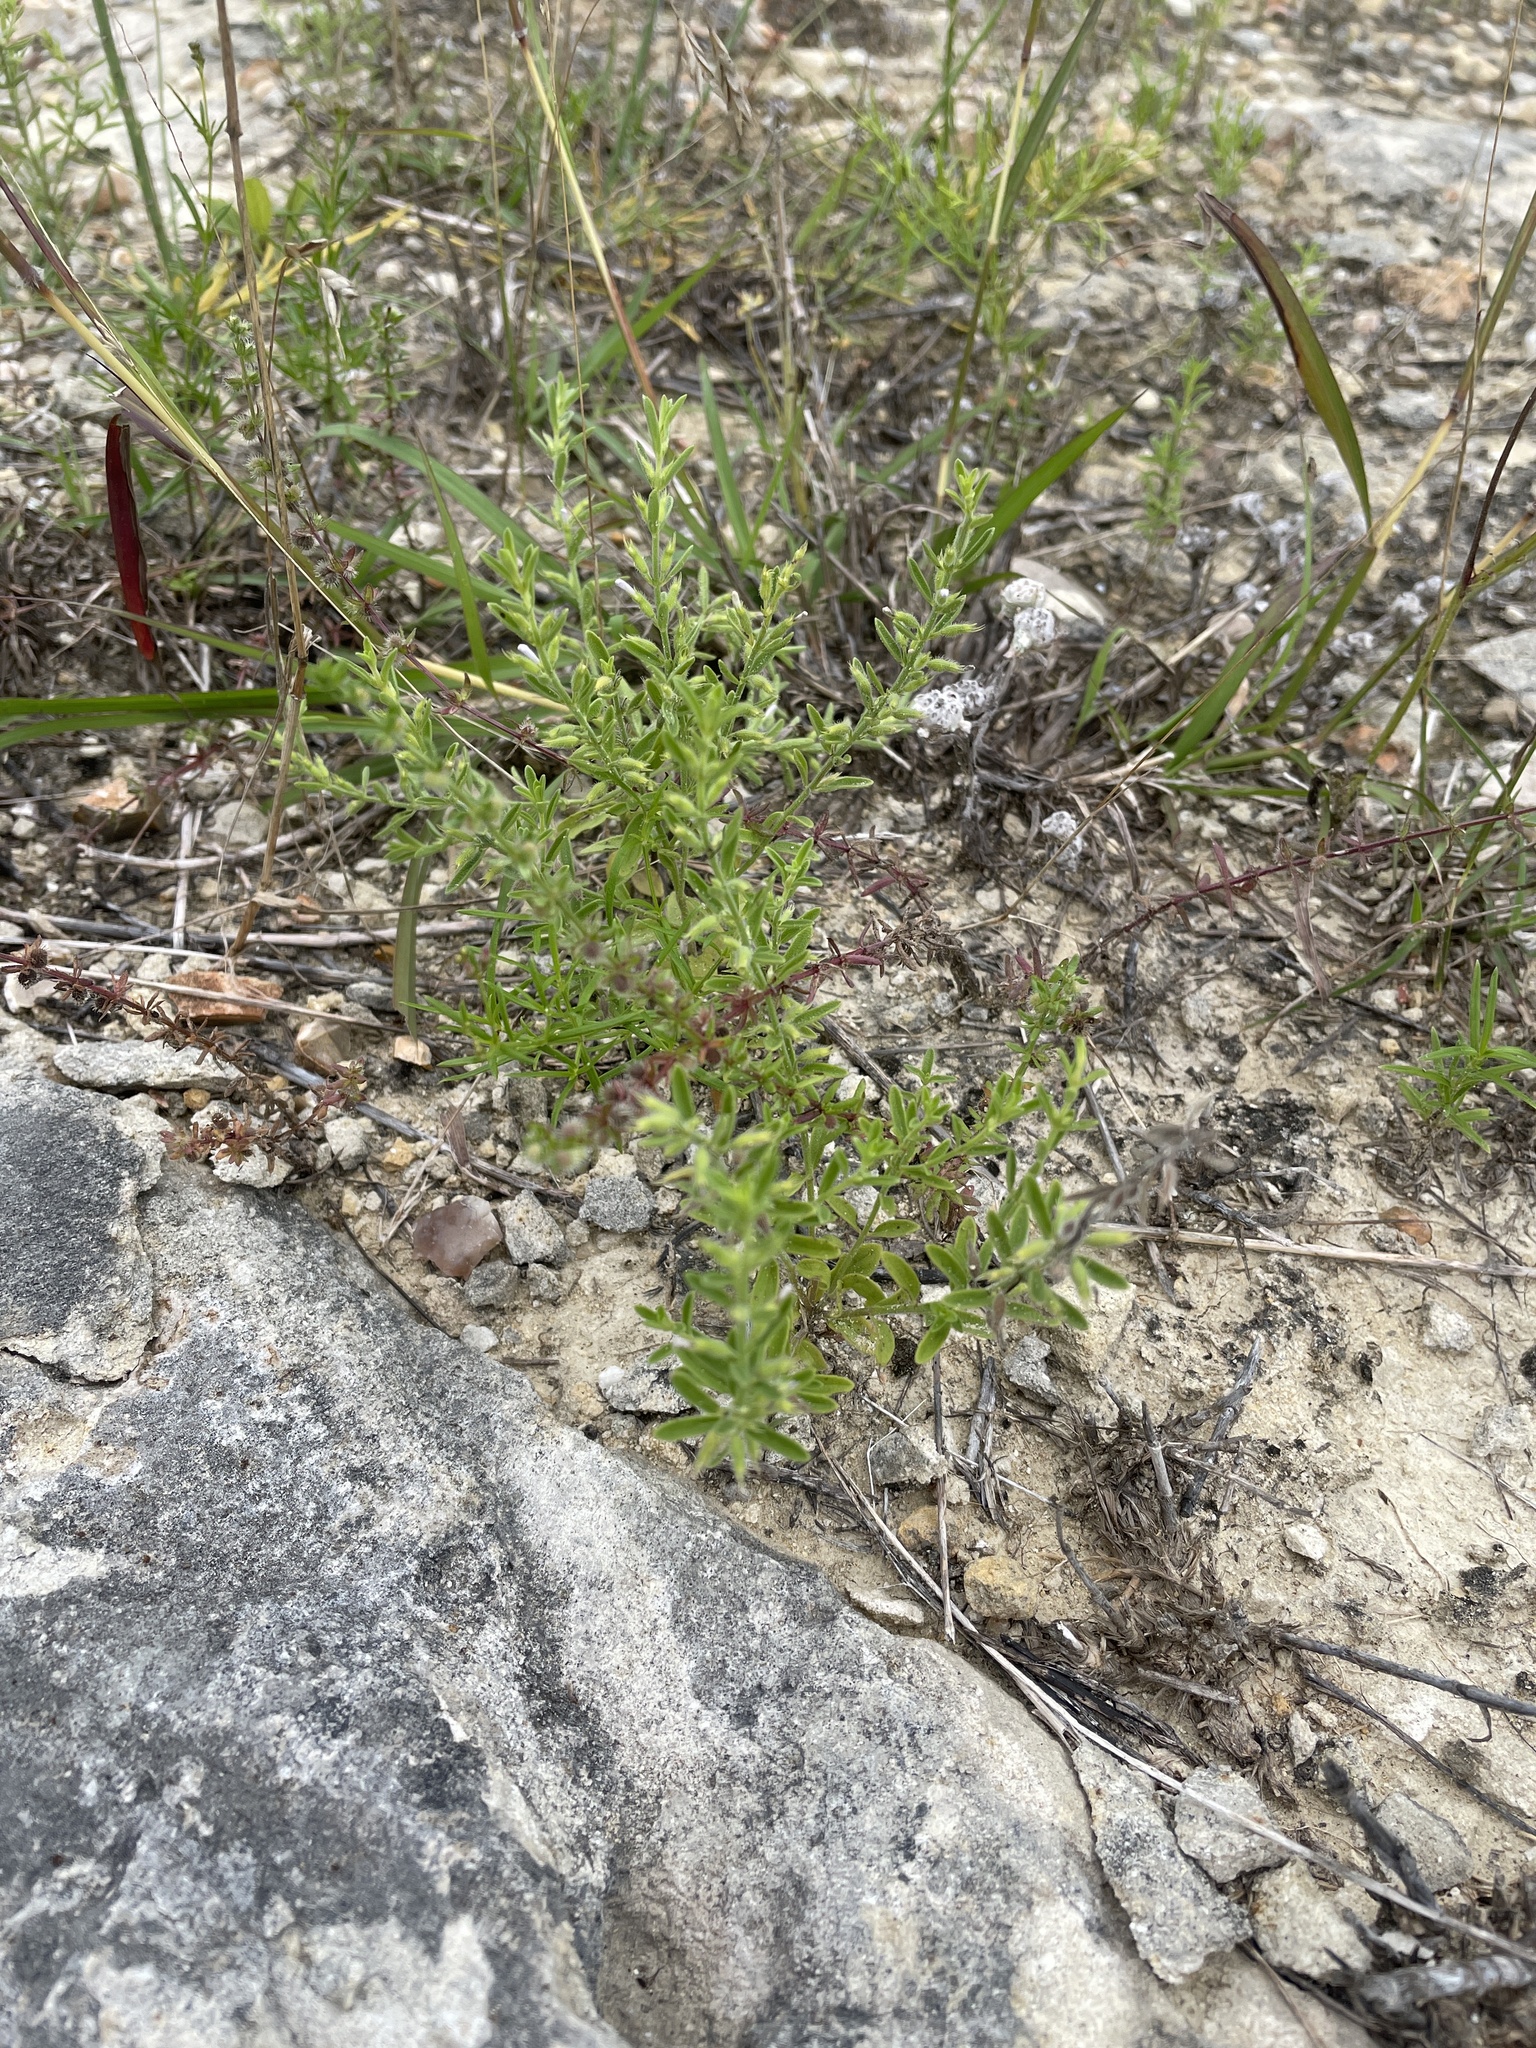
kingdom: Plantae
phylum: Tracheophyta
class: Magnoliopsida
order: Lamiales
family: Lamiaceae
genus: Hedeoma
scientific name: Hedeoma reverchonii
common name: Reverchon's false penny-royal
